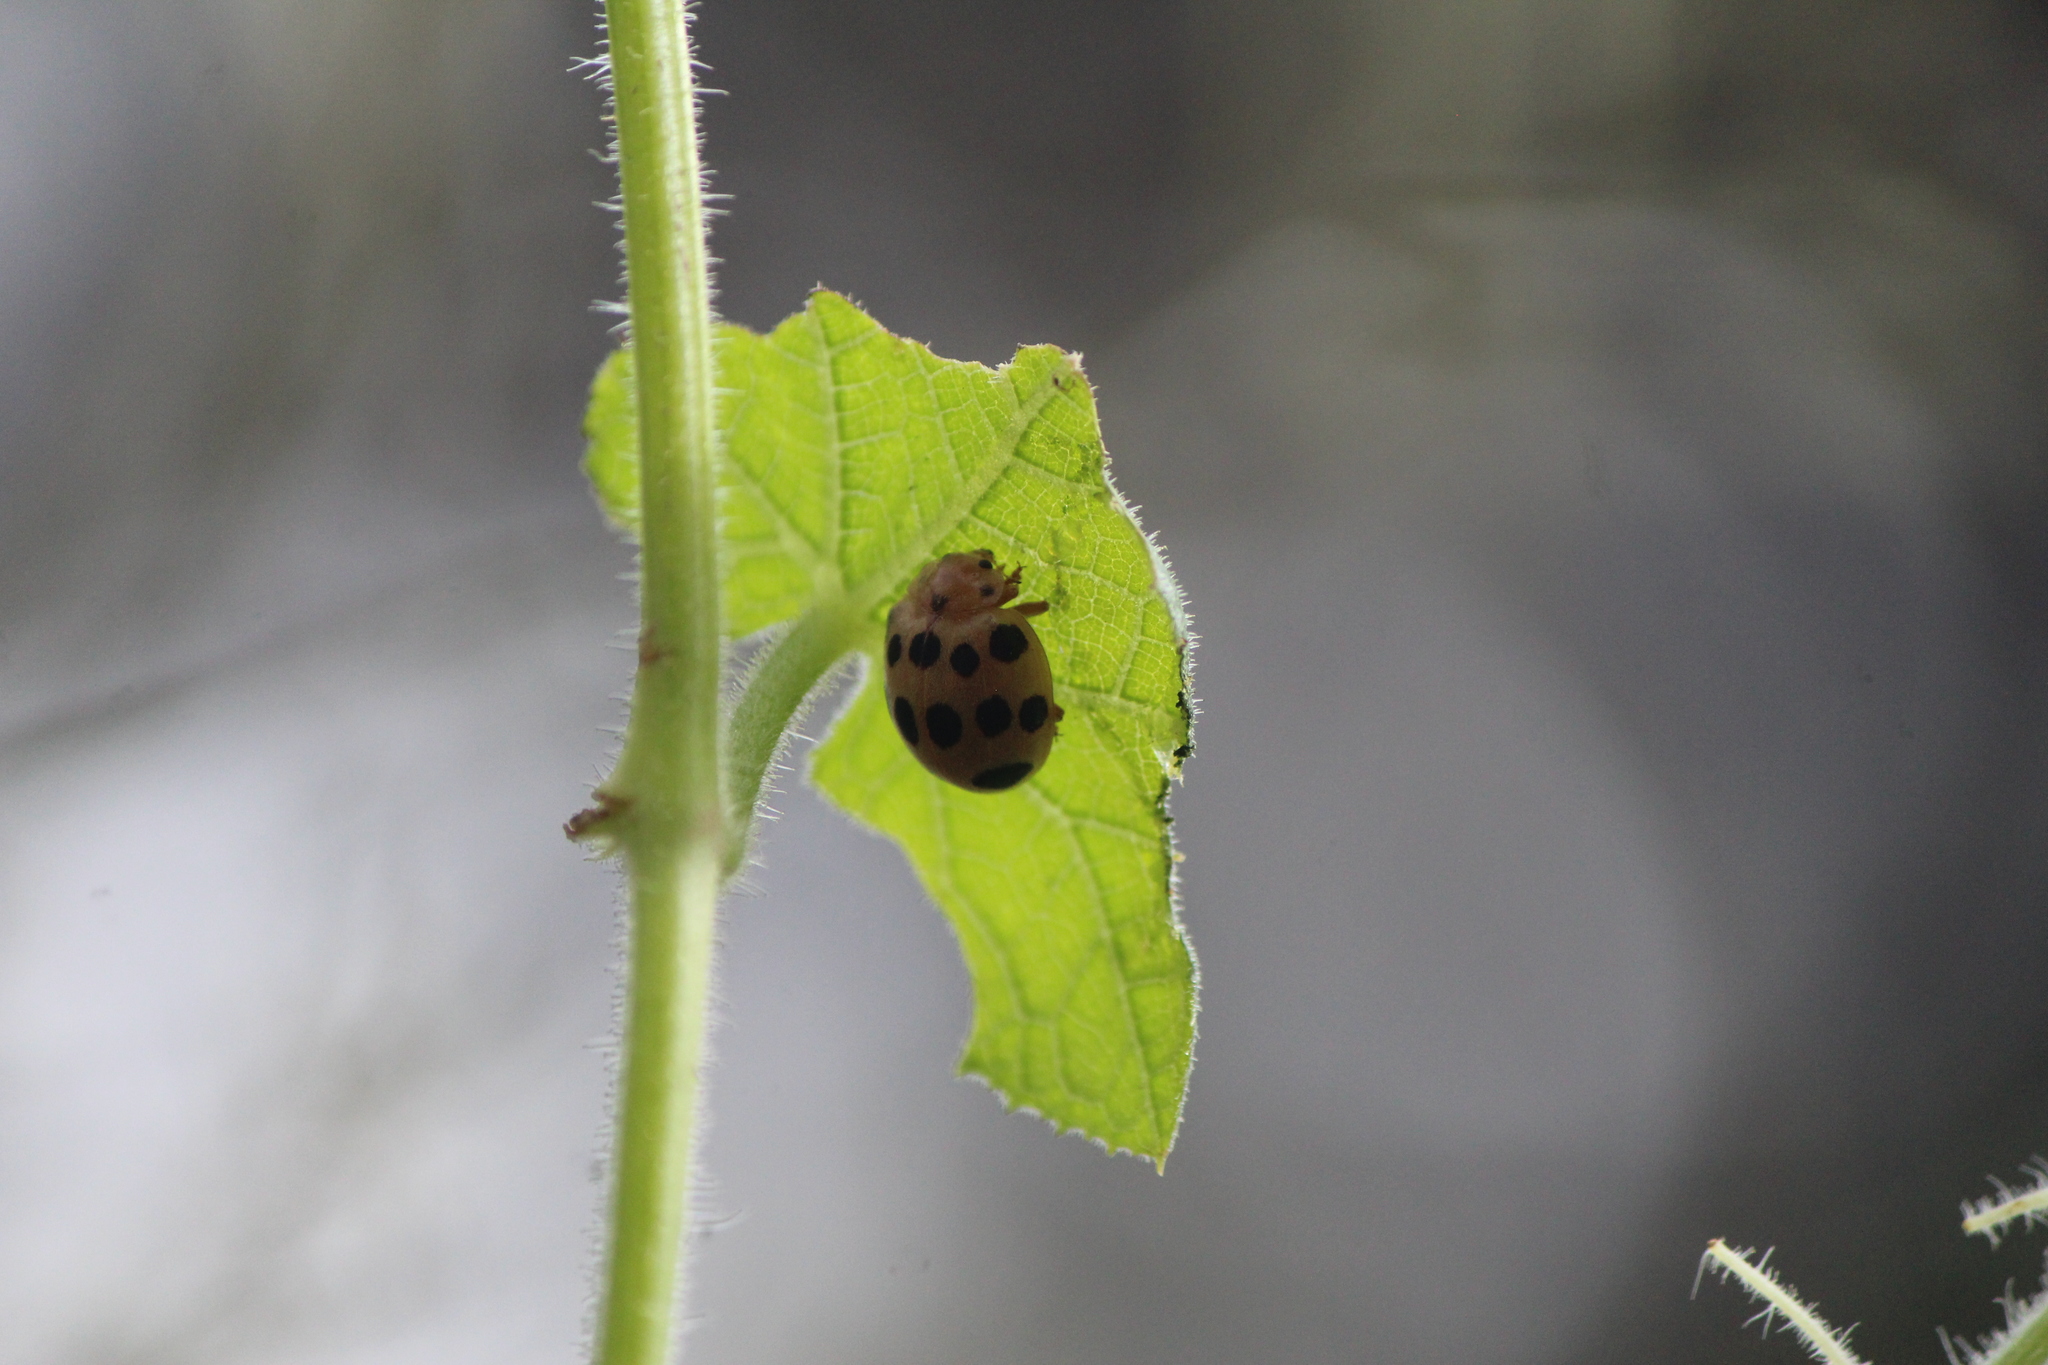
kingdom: Animalia
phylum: Arthropoda
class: Insecta
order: Coleoptera
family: Coccinellidae
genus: Epilachna
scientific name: Epilachna tredecimnotata
